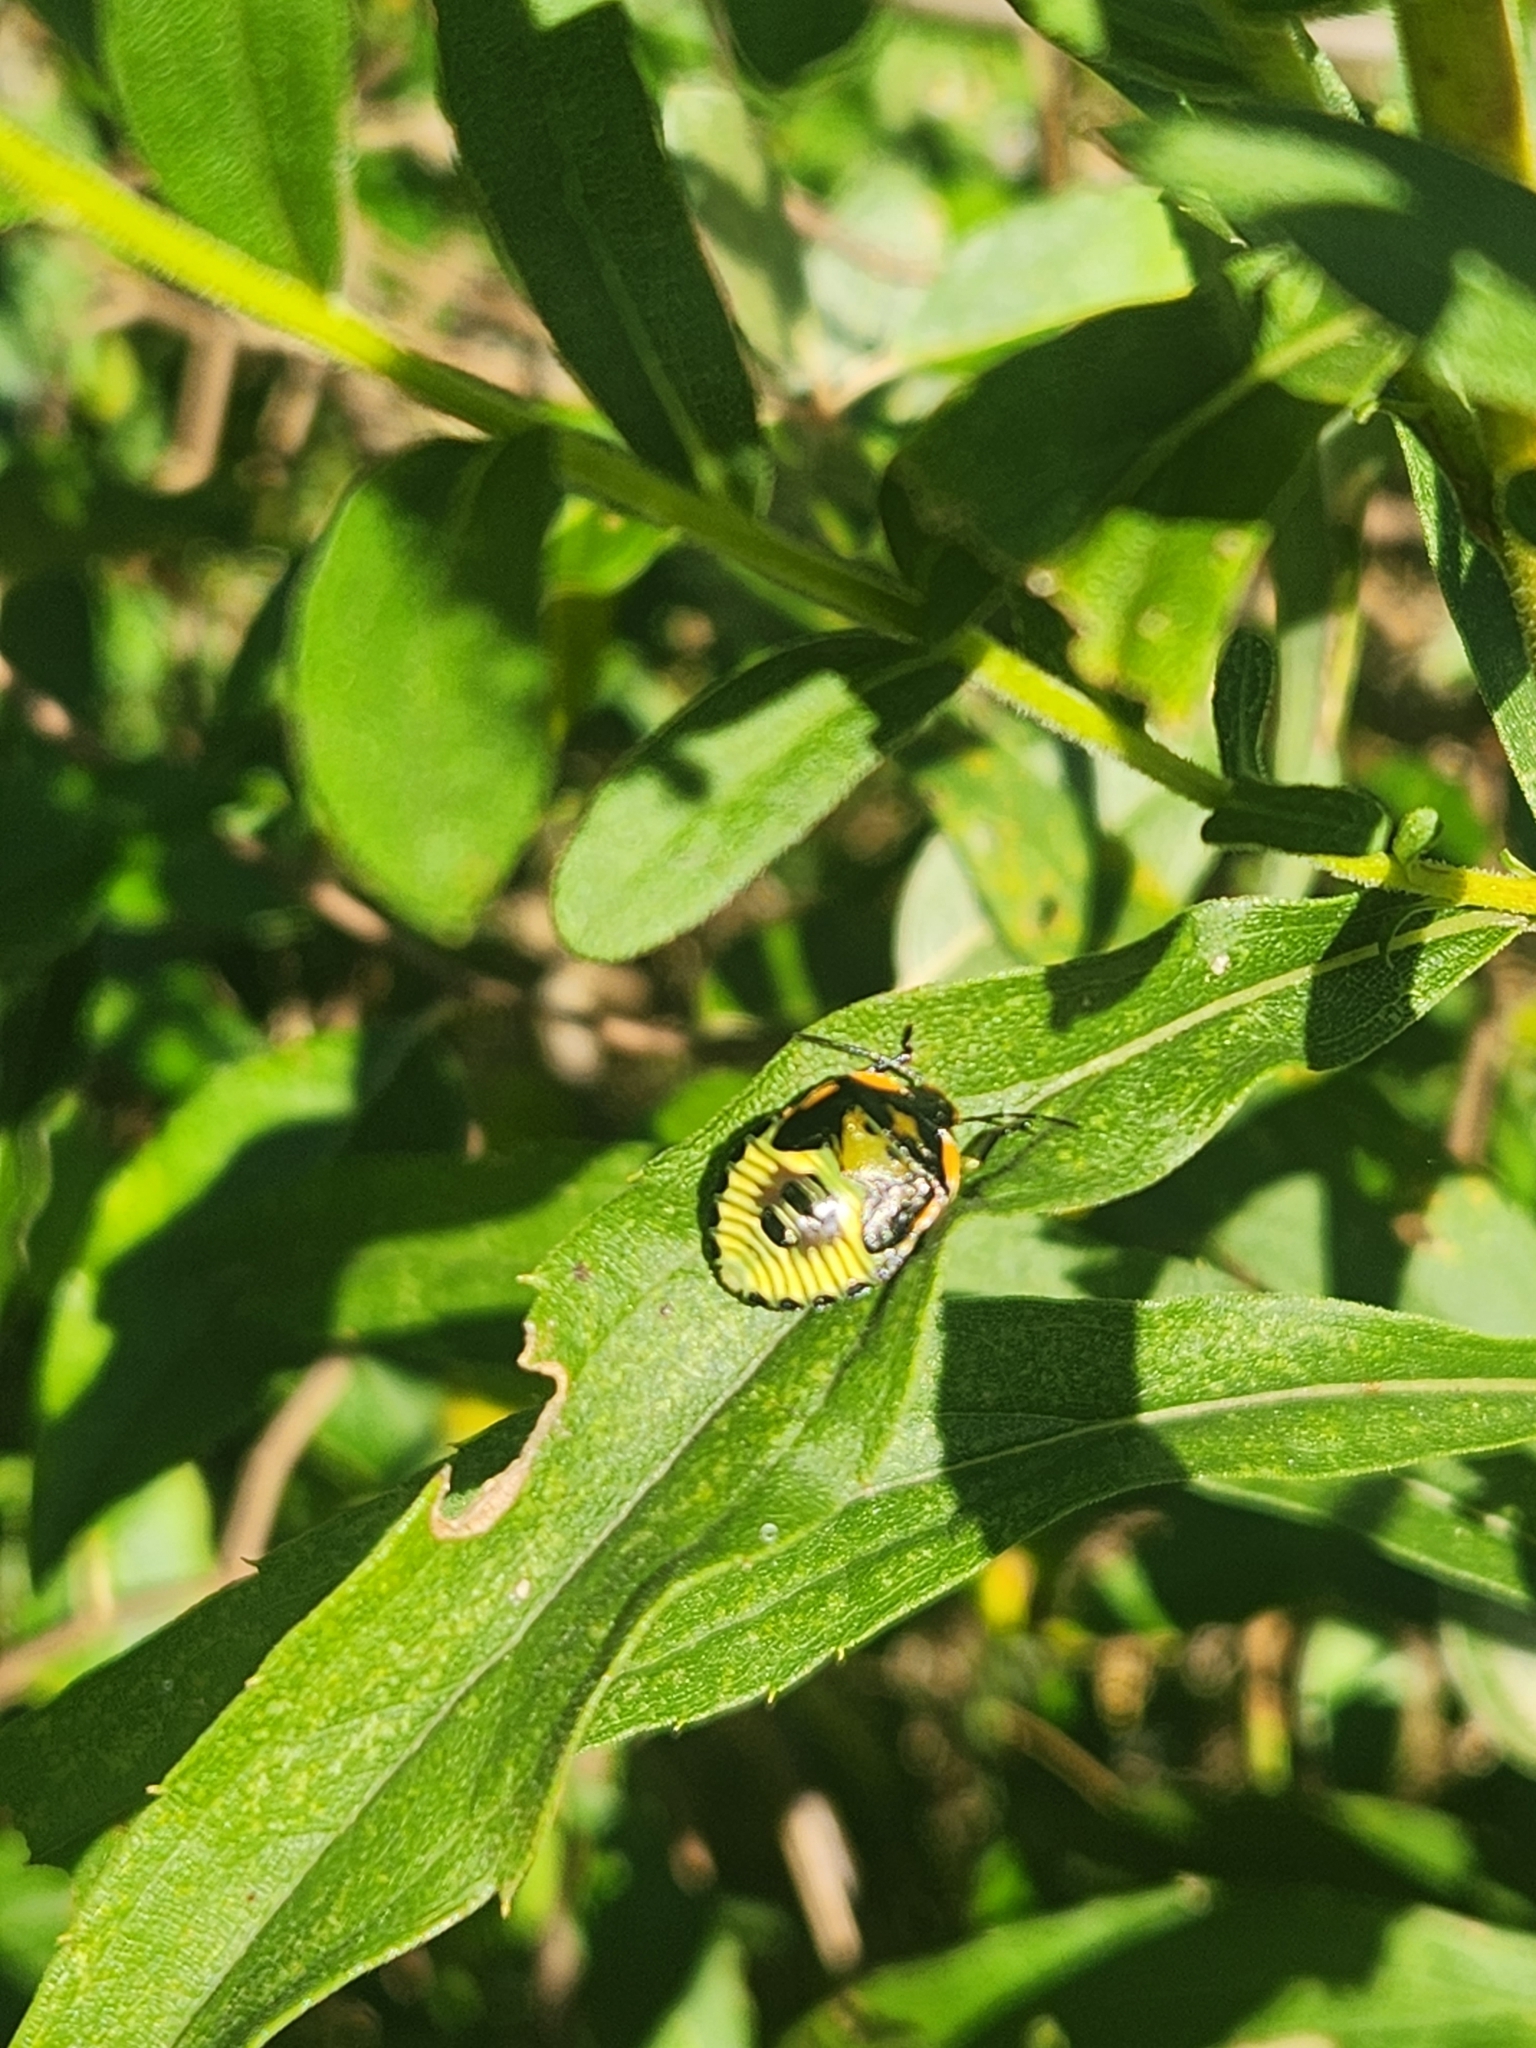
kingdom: Animalia
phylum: Arthropoda
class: Insecta
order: Hemiptera
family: Pentatomidae
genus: Chinavia
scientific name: Chinavia hilaris
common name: Green stink bug
